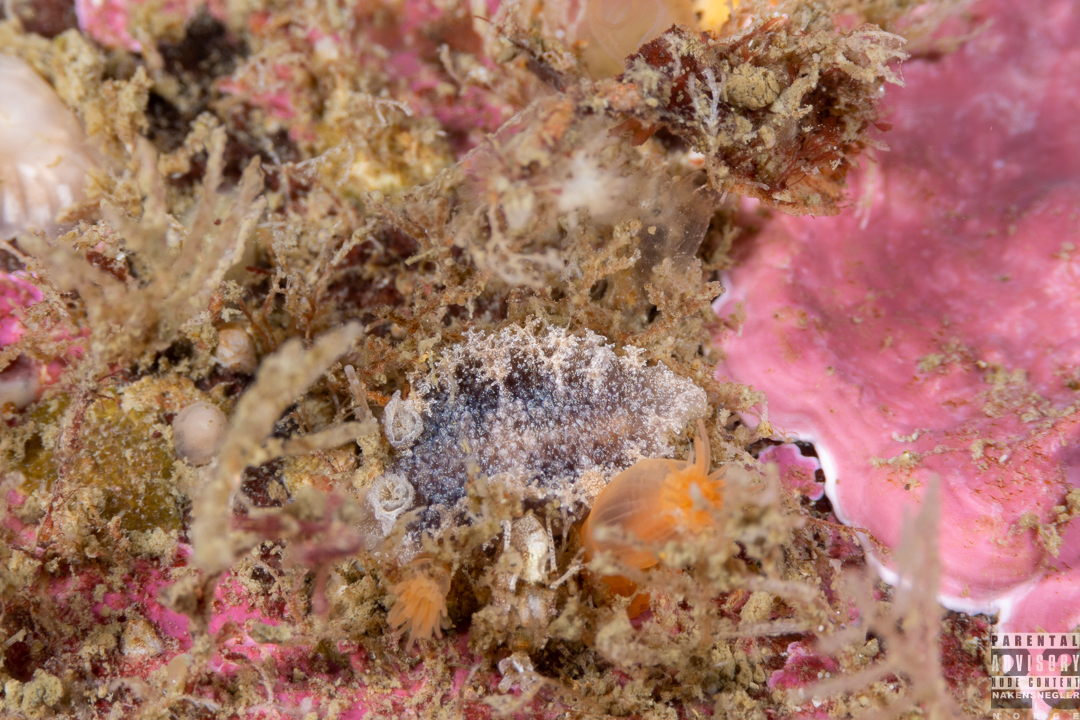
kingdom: Animalia
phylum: Mollusca
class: Gastropoda
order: Nudibranchia
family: Tritoniidae
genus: Tritonia
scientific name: Tritonia hombergii
